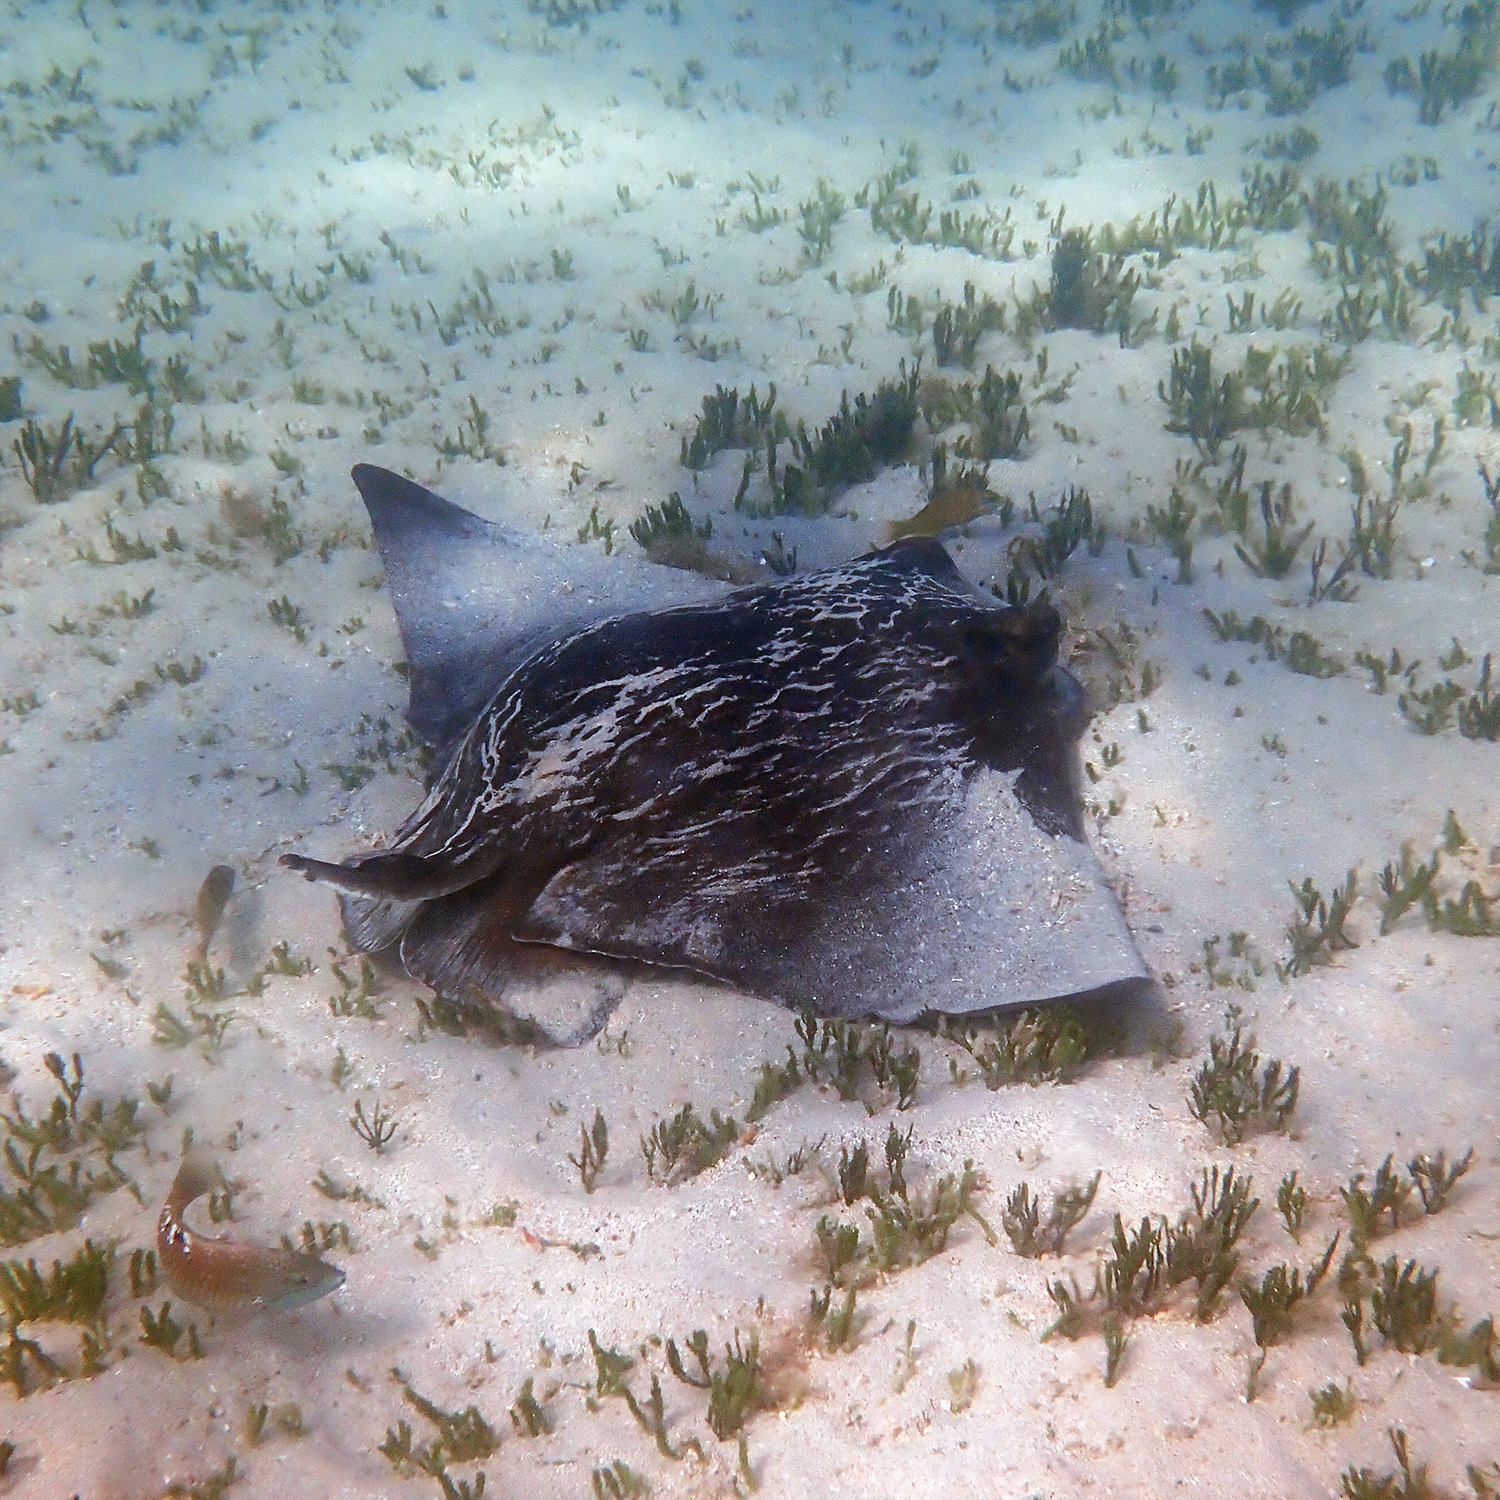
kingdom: Animalia
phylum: Chordata
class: Elasmobranchii
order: Myliobatiformes
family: Myliobatidae
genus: Myliobatis
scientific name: Myliobatis tenuicaudatus
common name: Eagle ray
